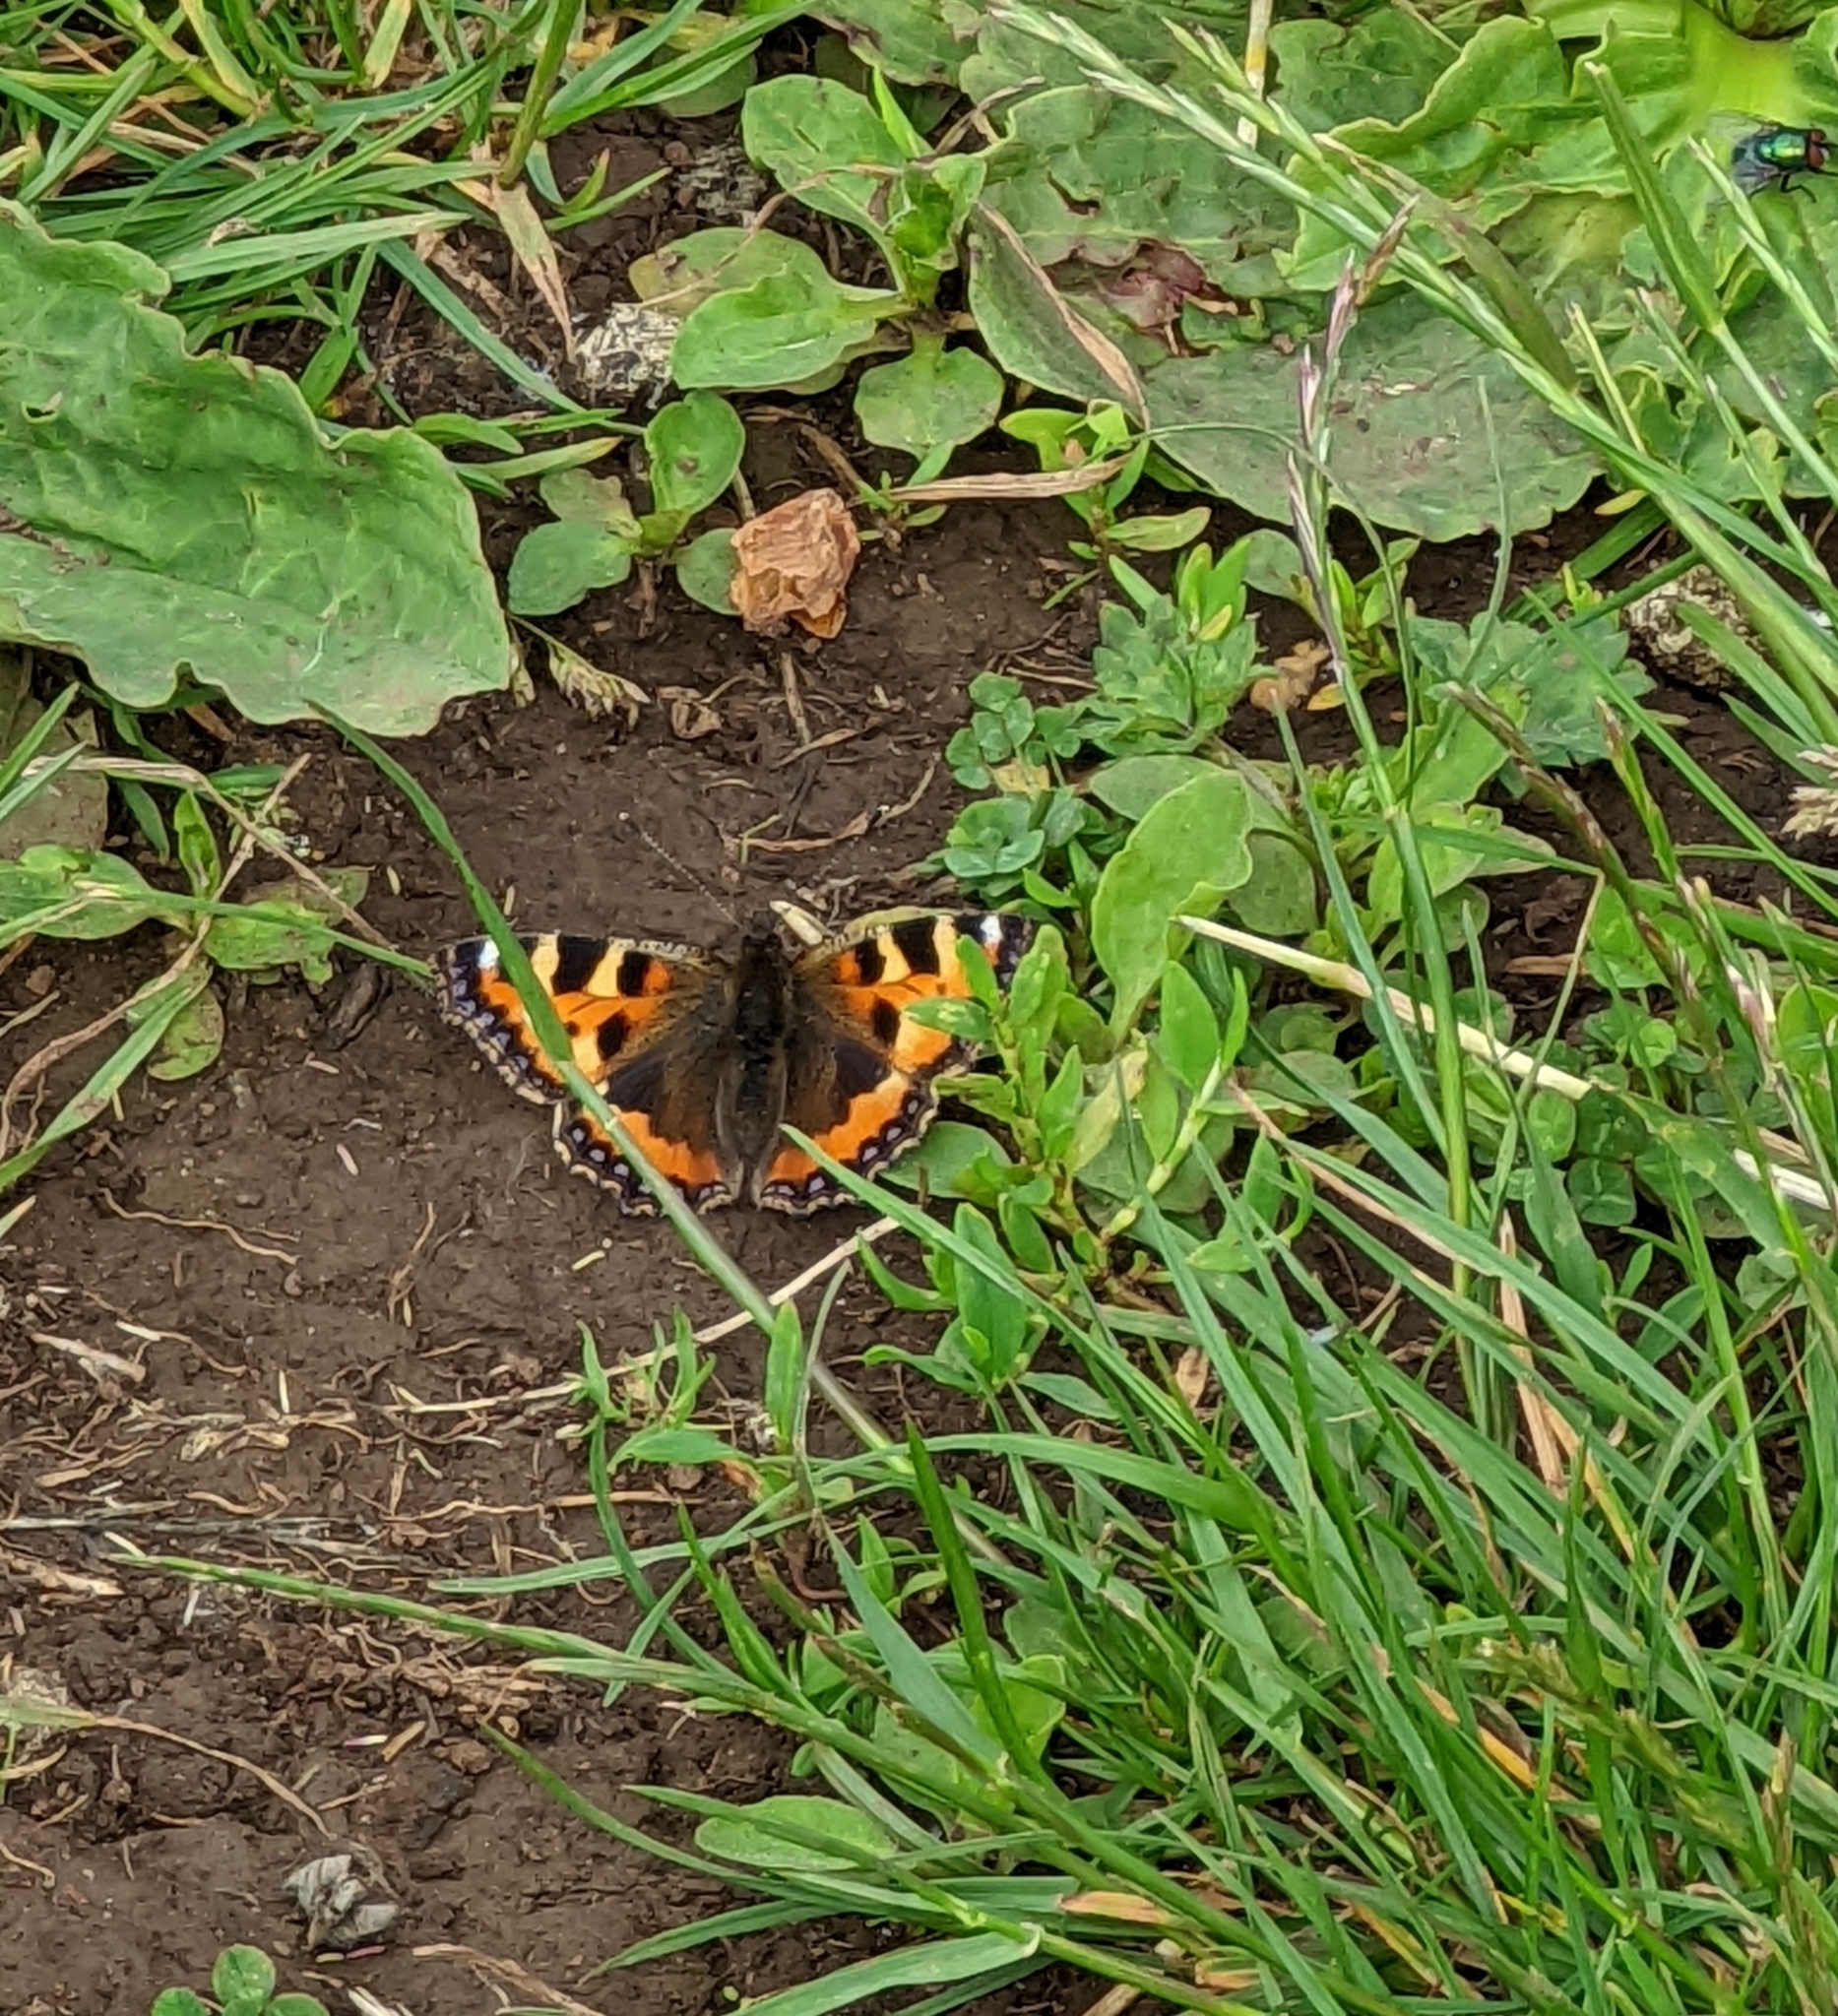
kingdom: Animalia
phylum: Arthropoda
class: Insecta
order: Lepidoptera
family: Nymphalidae
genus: Aglais
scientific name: Aglais urticae
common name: Small tortoiseshell
